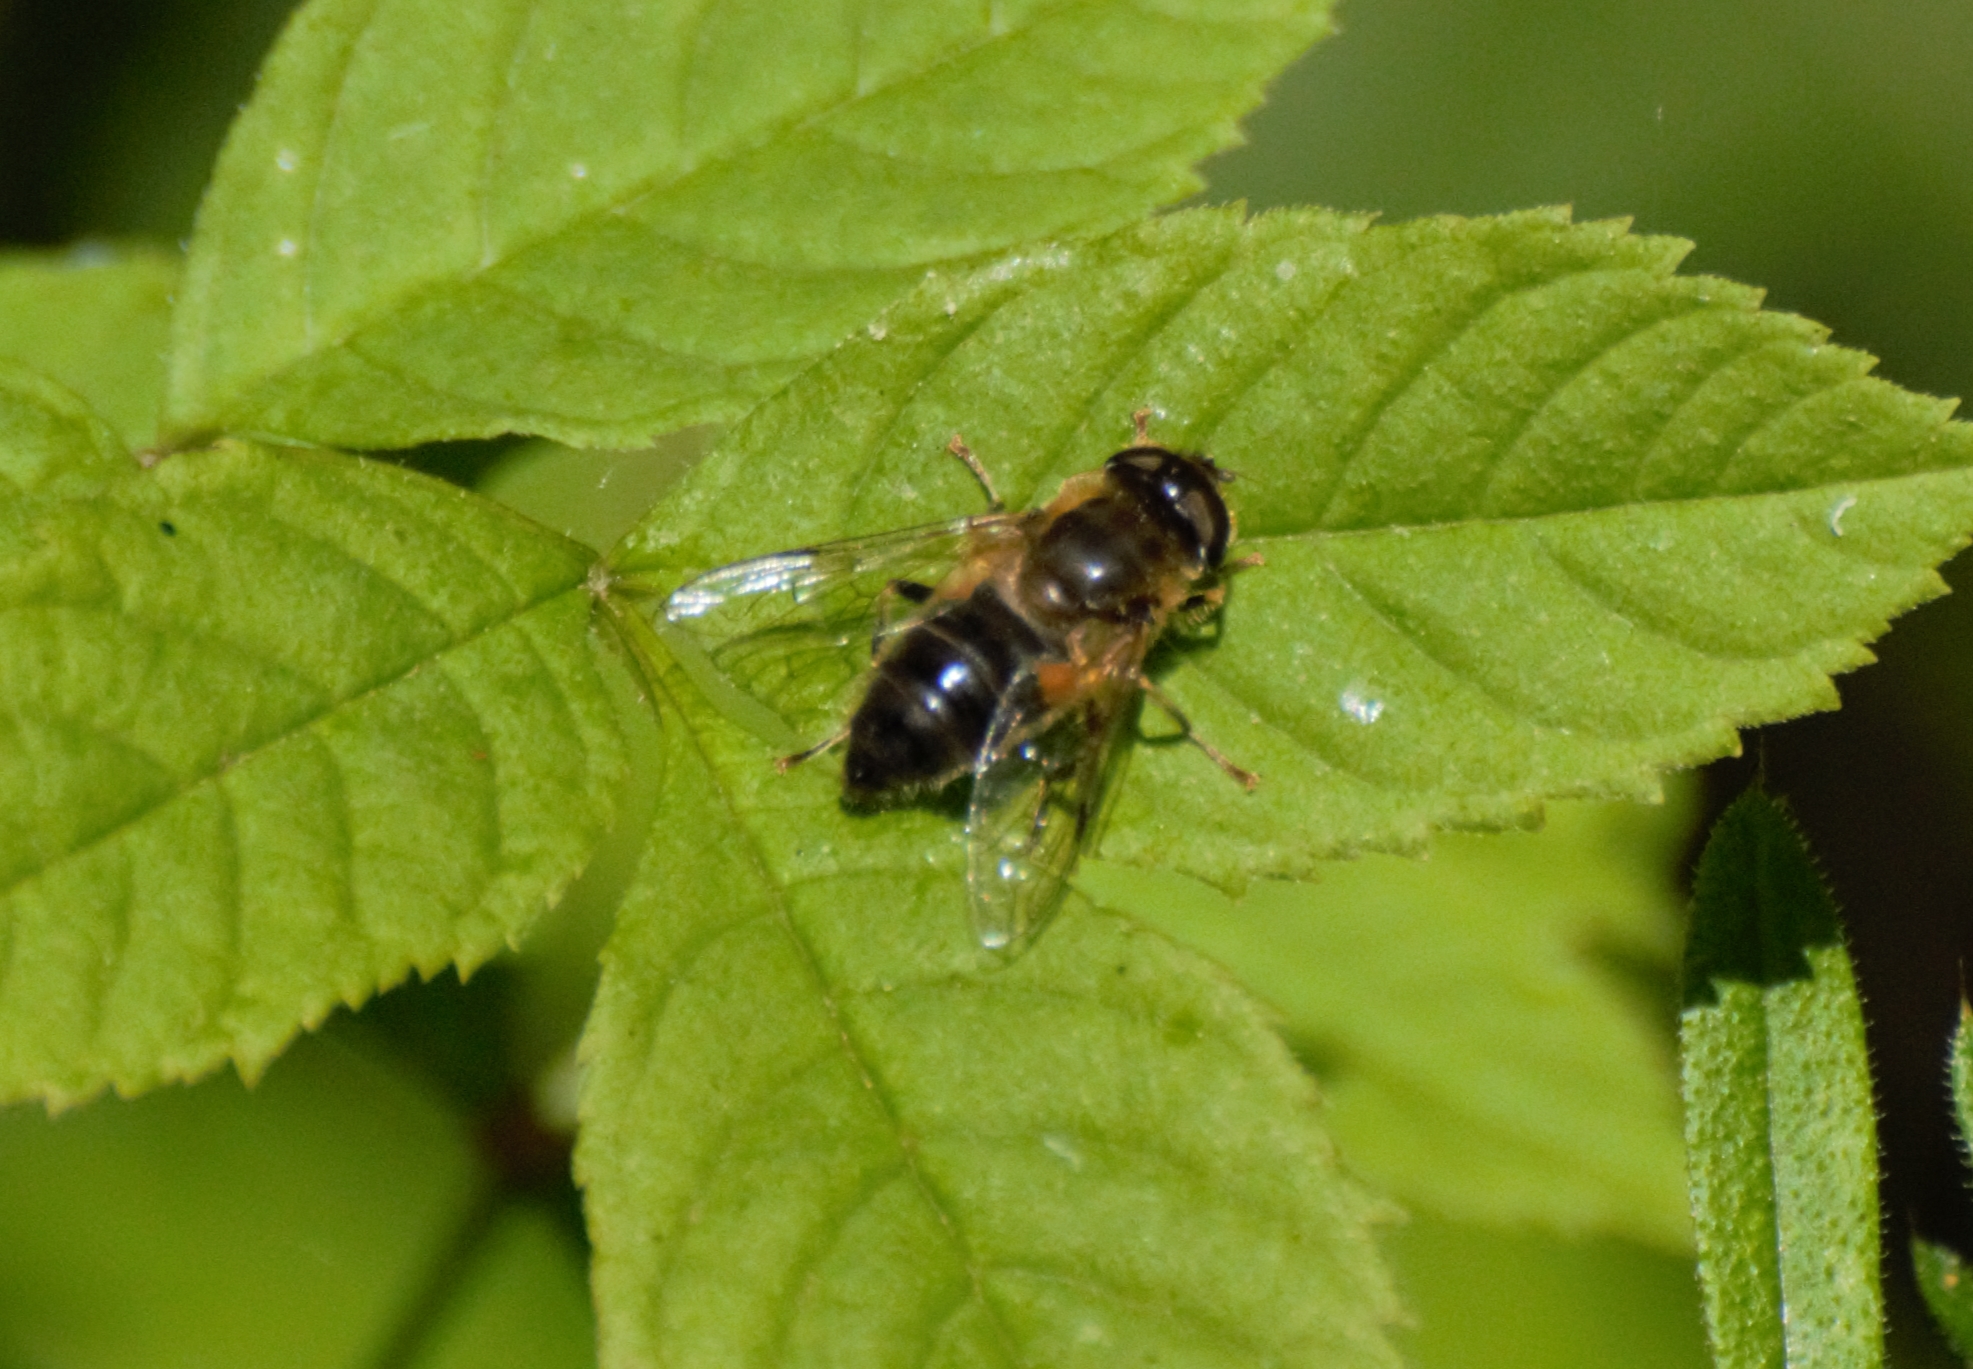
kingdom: Animalia
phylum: Arthropoda
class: Insecta
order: Diptera
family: Syrphidae
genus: Eristalis
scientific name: Eristalis pertinax
